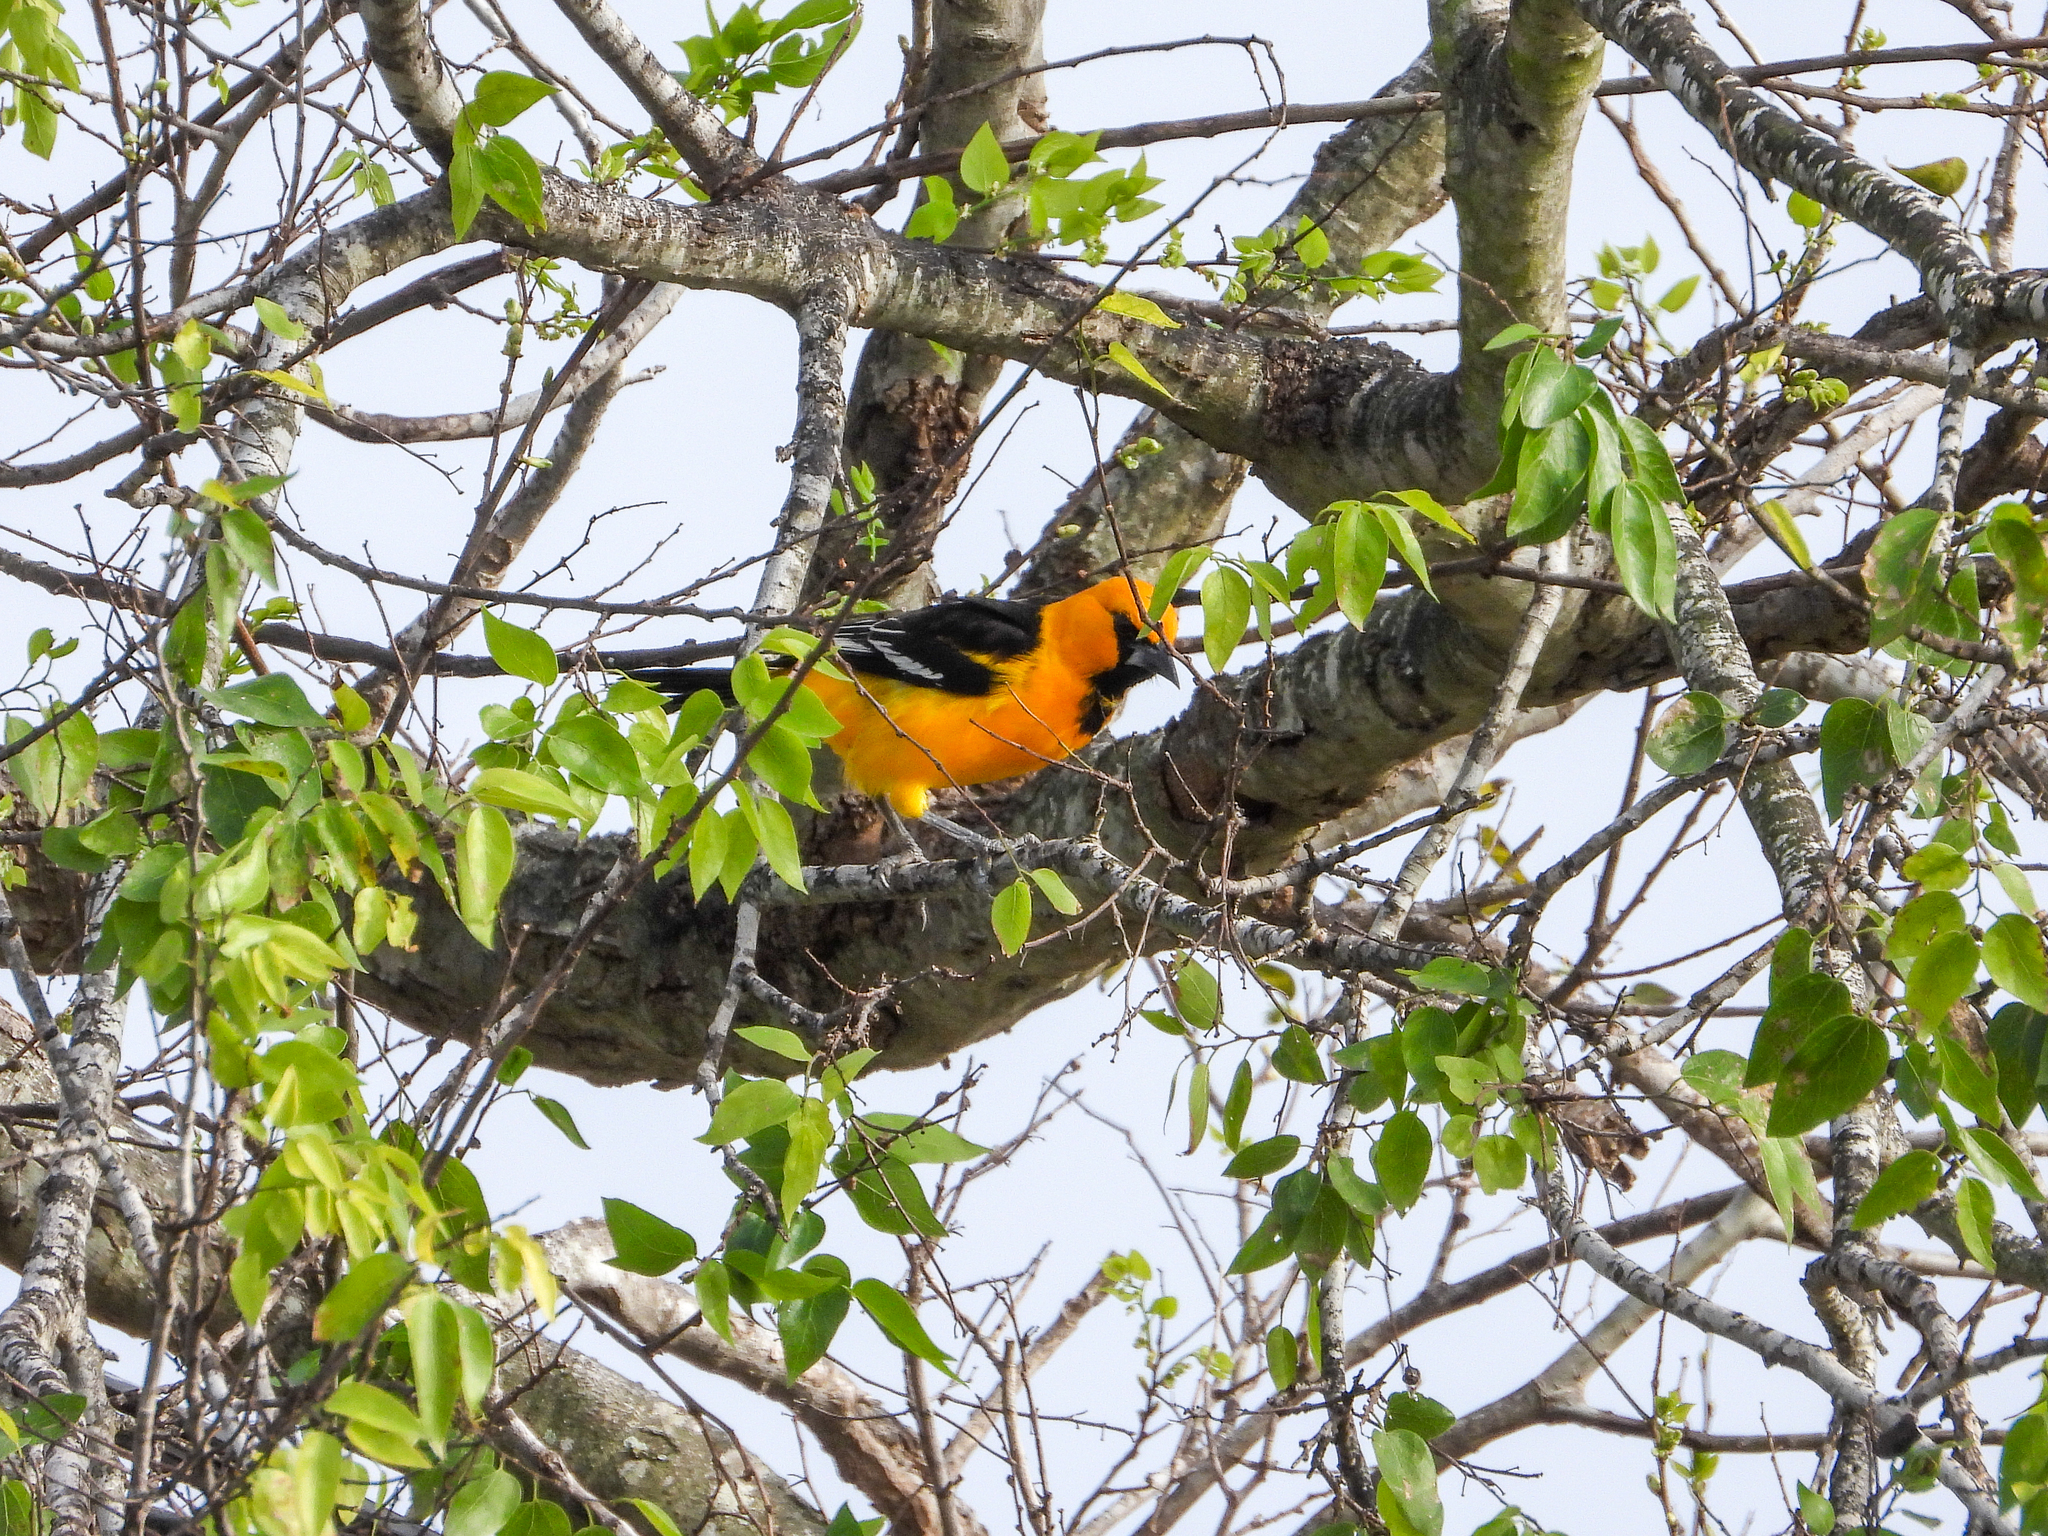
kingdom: Animalia
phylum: Chordata
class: Aves
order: Passeriformes
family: Icteridae
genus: Icterus
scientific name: Icterus gularis
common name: Altamira oriole
